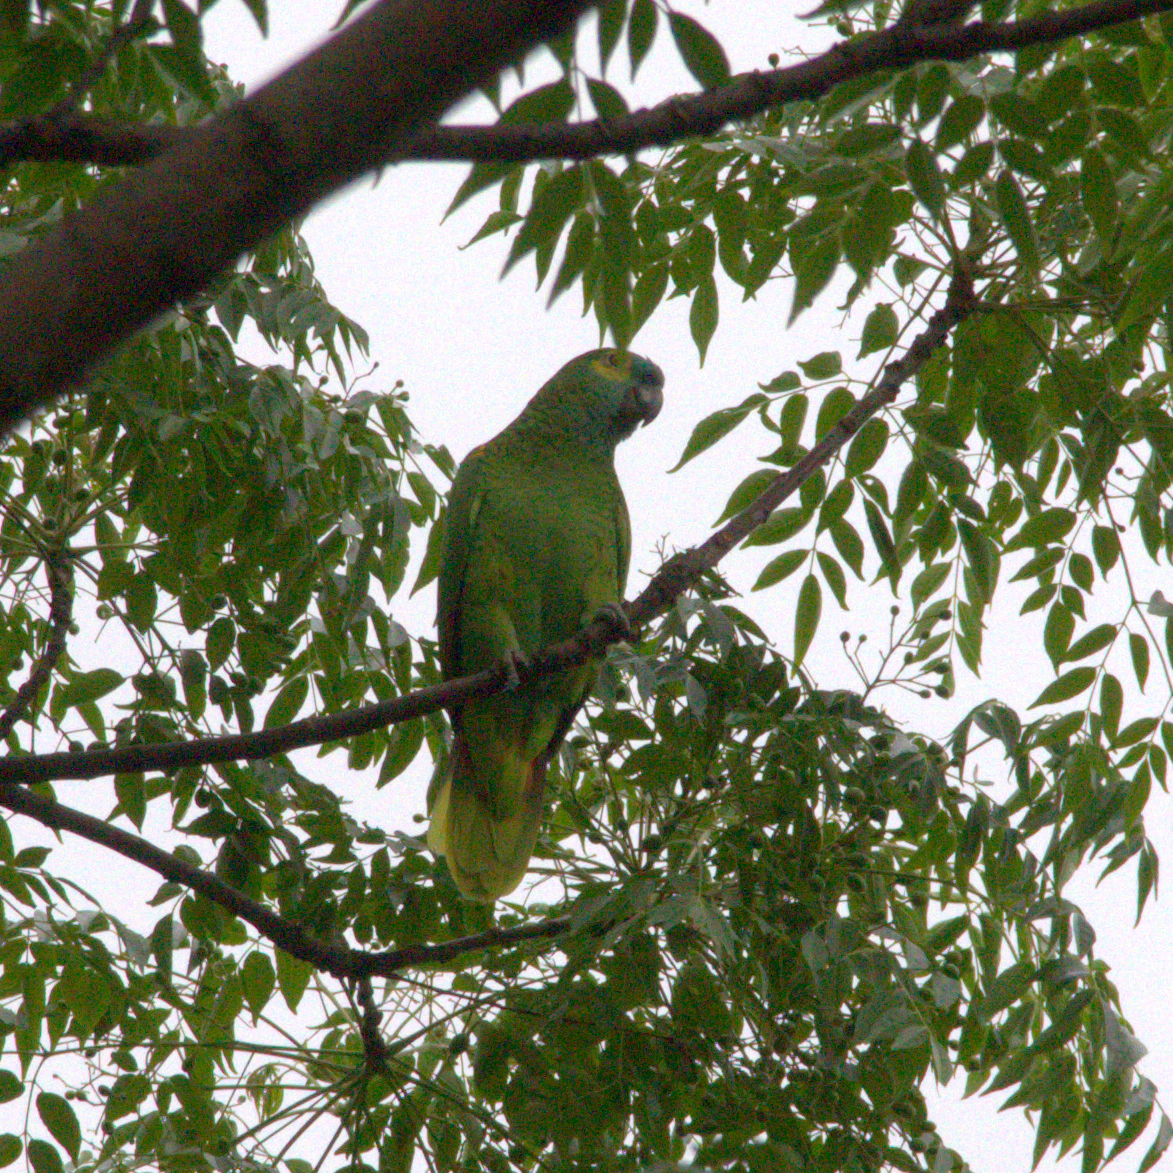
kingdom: Animalia
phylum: Chordata
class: Aves
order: Psittaciformes
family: Psittacidae
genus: Amazona
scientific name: Amazona aestiva
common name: Turquoise-fronted amazon
